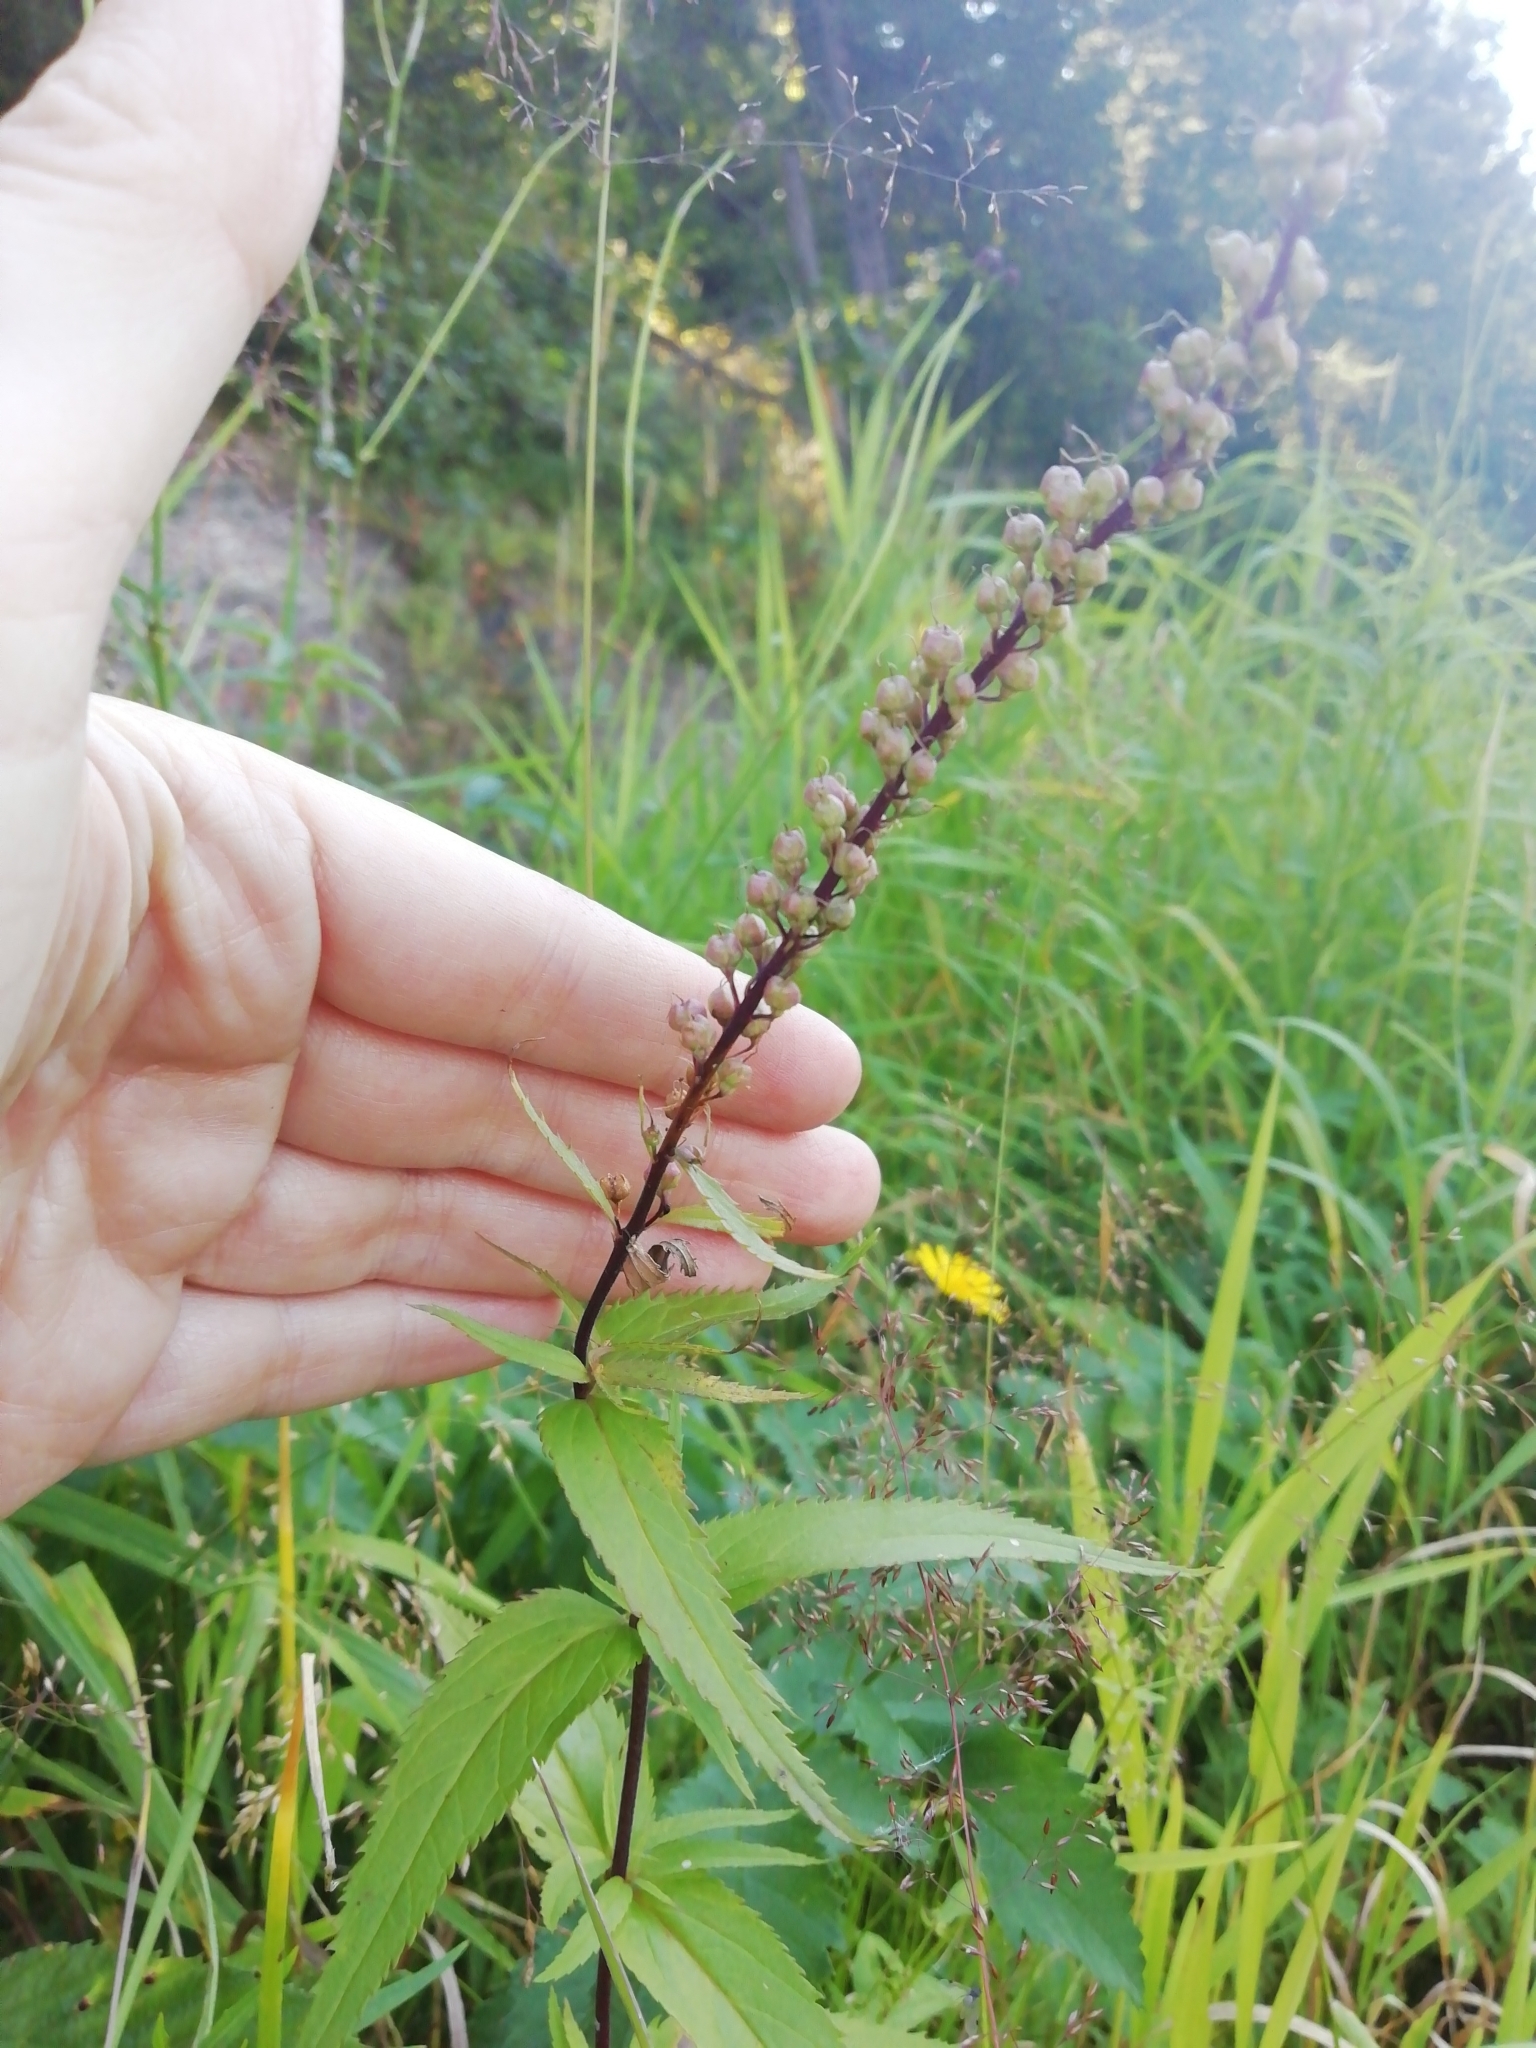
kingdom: Plantae
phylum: Tracheophyta
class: Magnoliopsida
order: Lamiales
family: Plantaginaceae
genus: Veronica
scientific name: Veronica longifolia
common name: Garden speedwell
